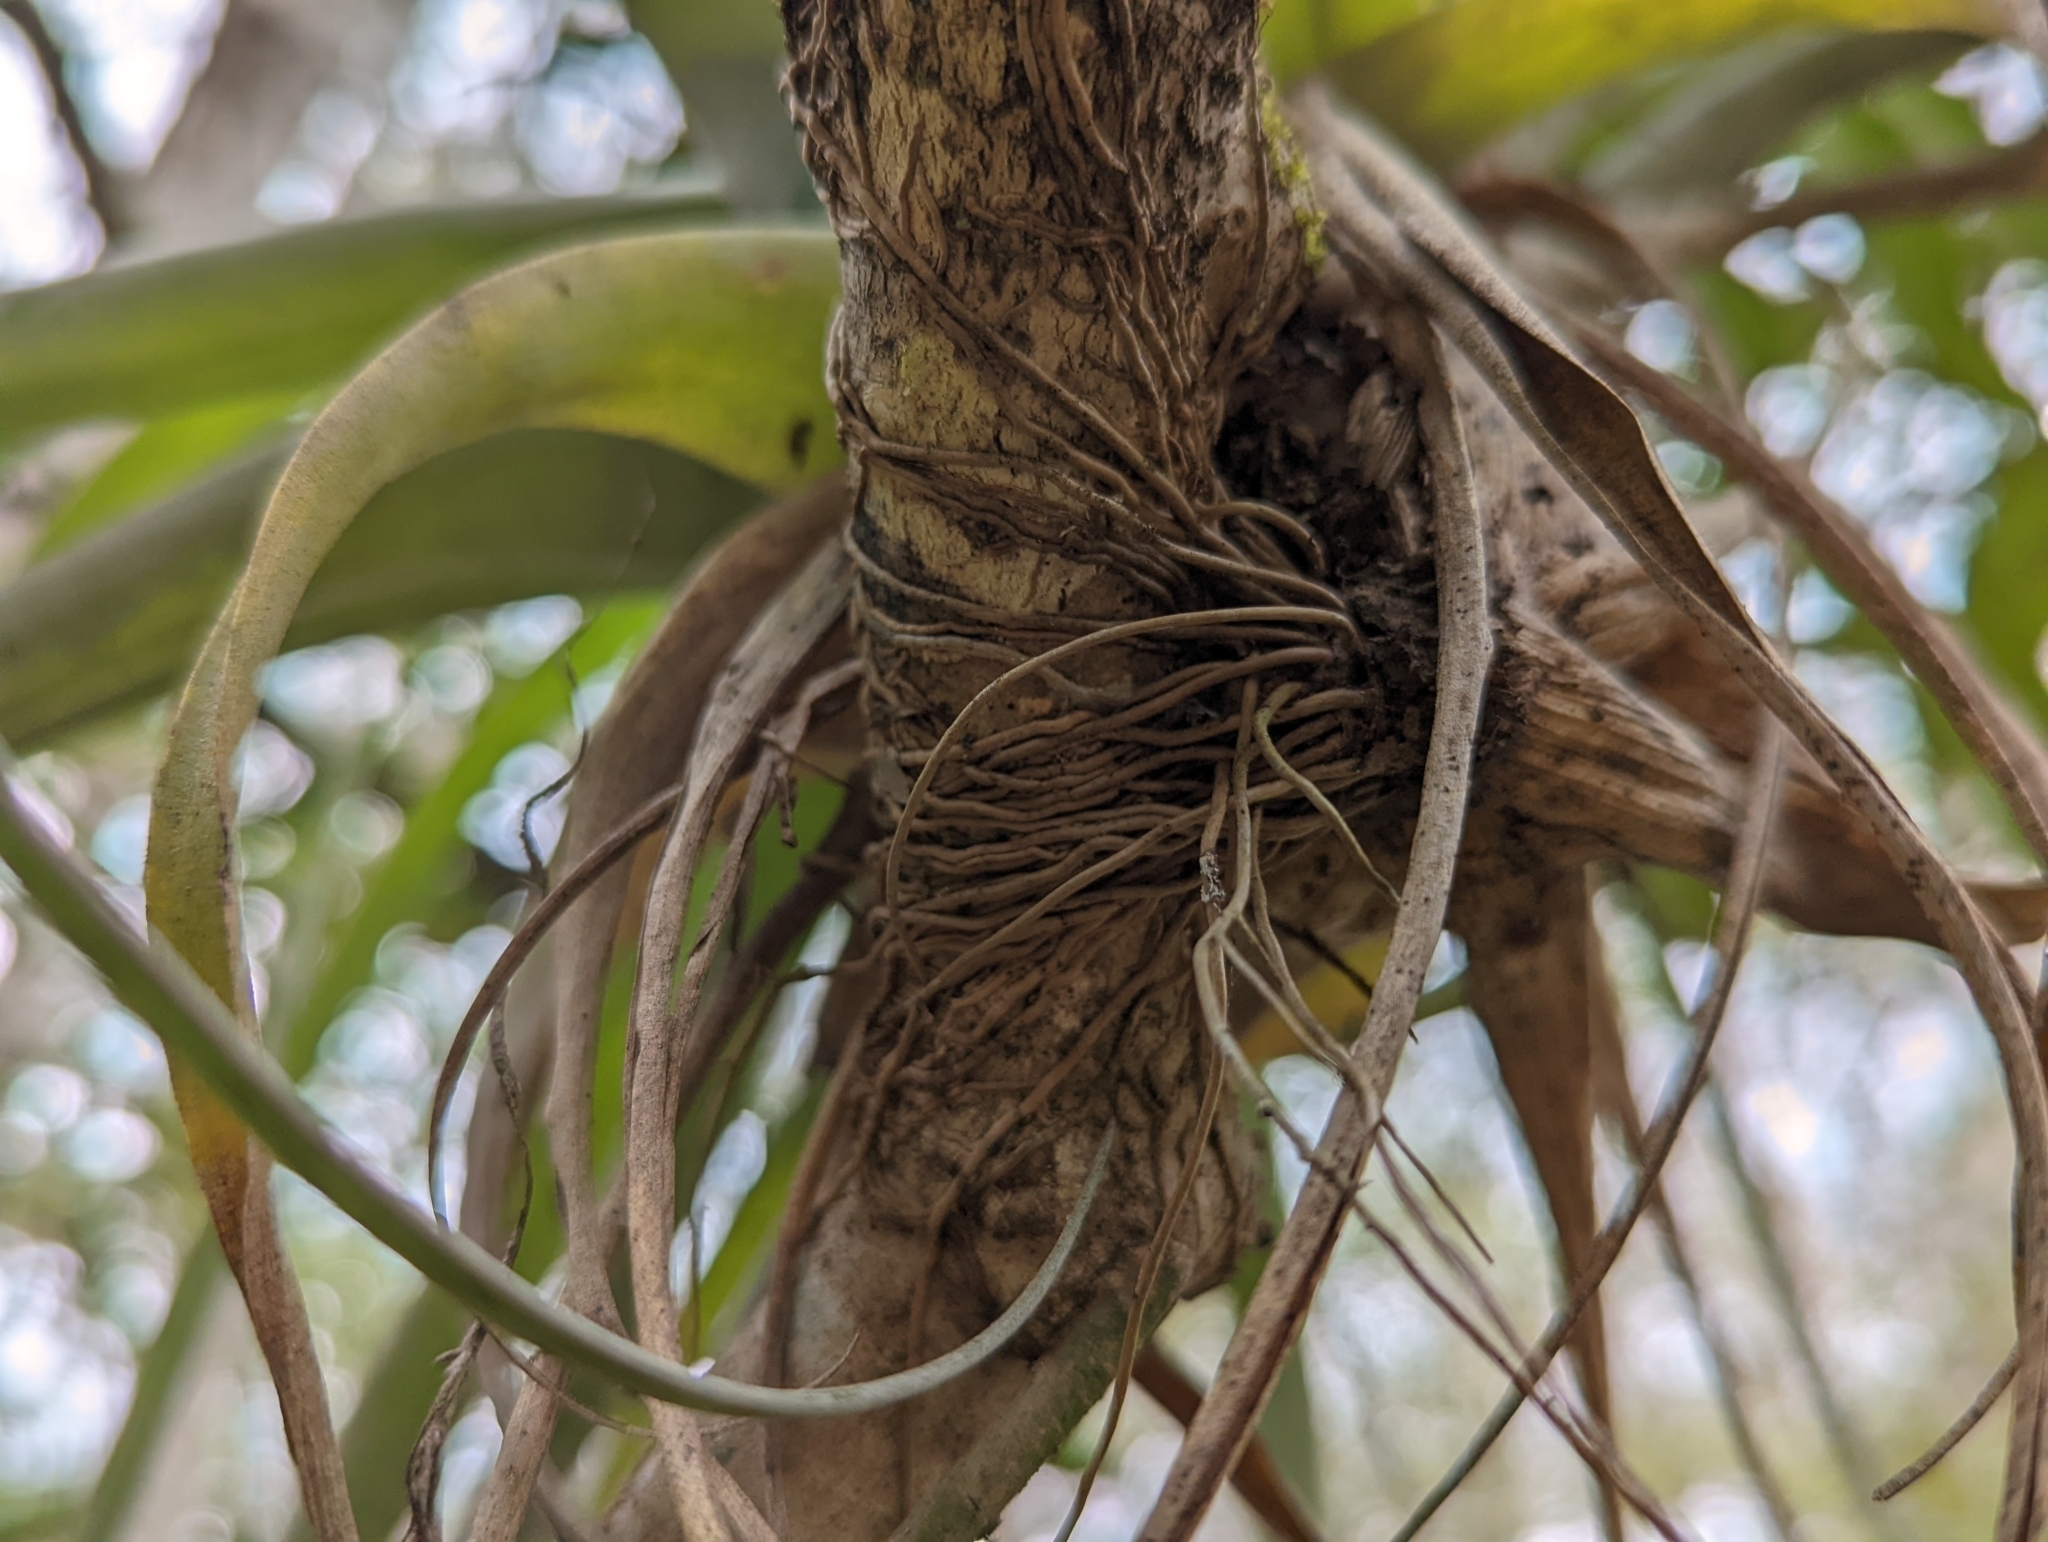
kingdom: Plantae
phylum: Tracheophyta
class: Liliopsida
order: Poales
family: Bromeliaceae
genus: Tillandsia
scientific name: Tillandsia utriculata
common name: Wild pine
